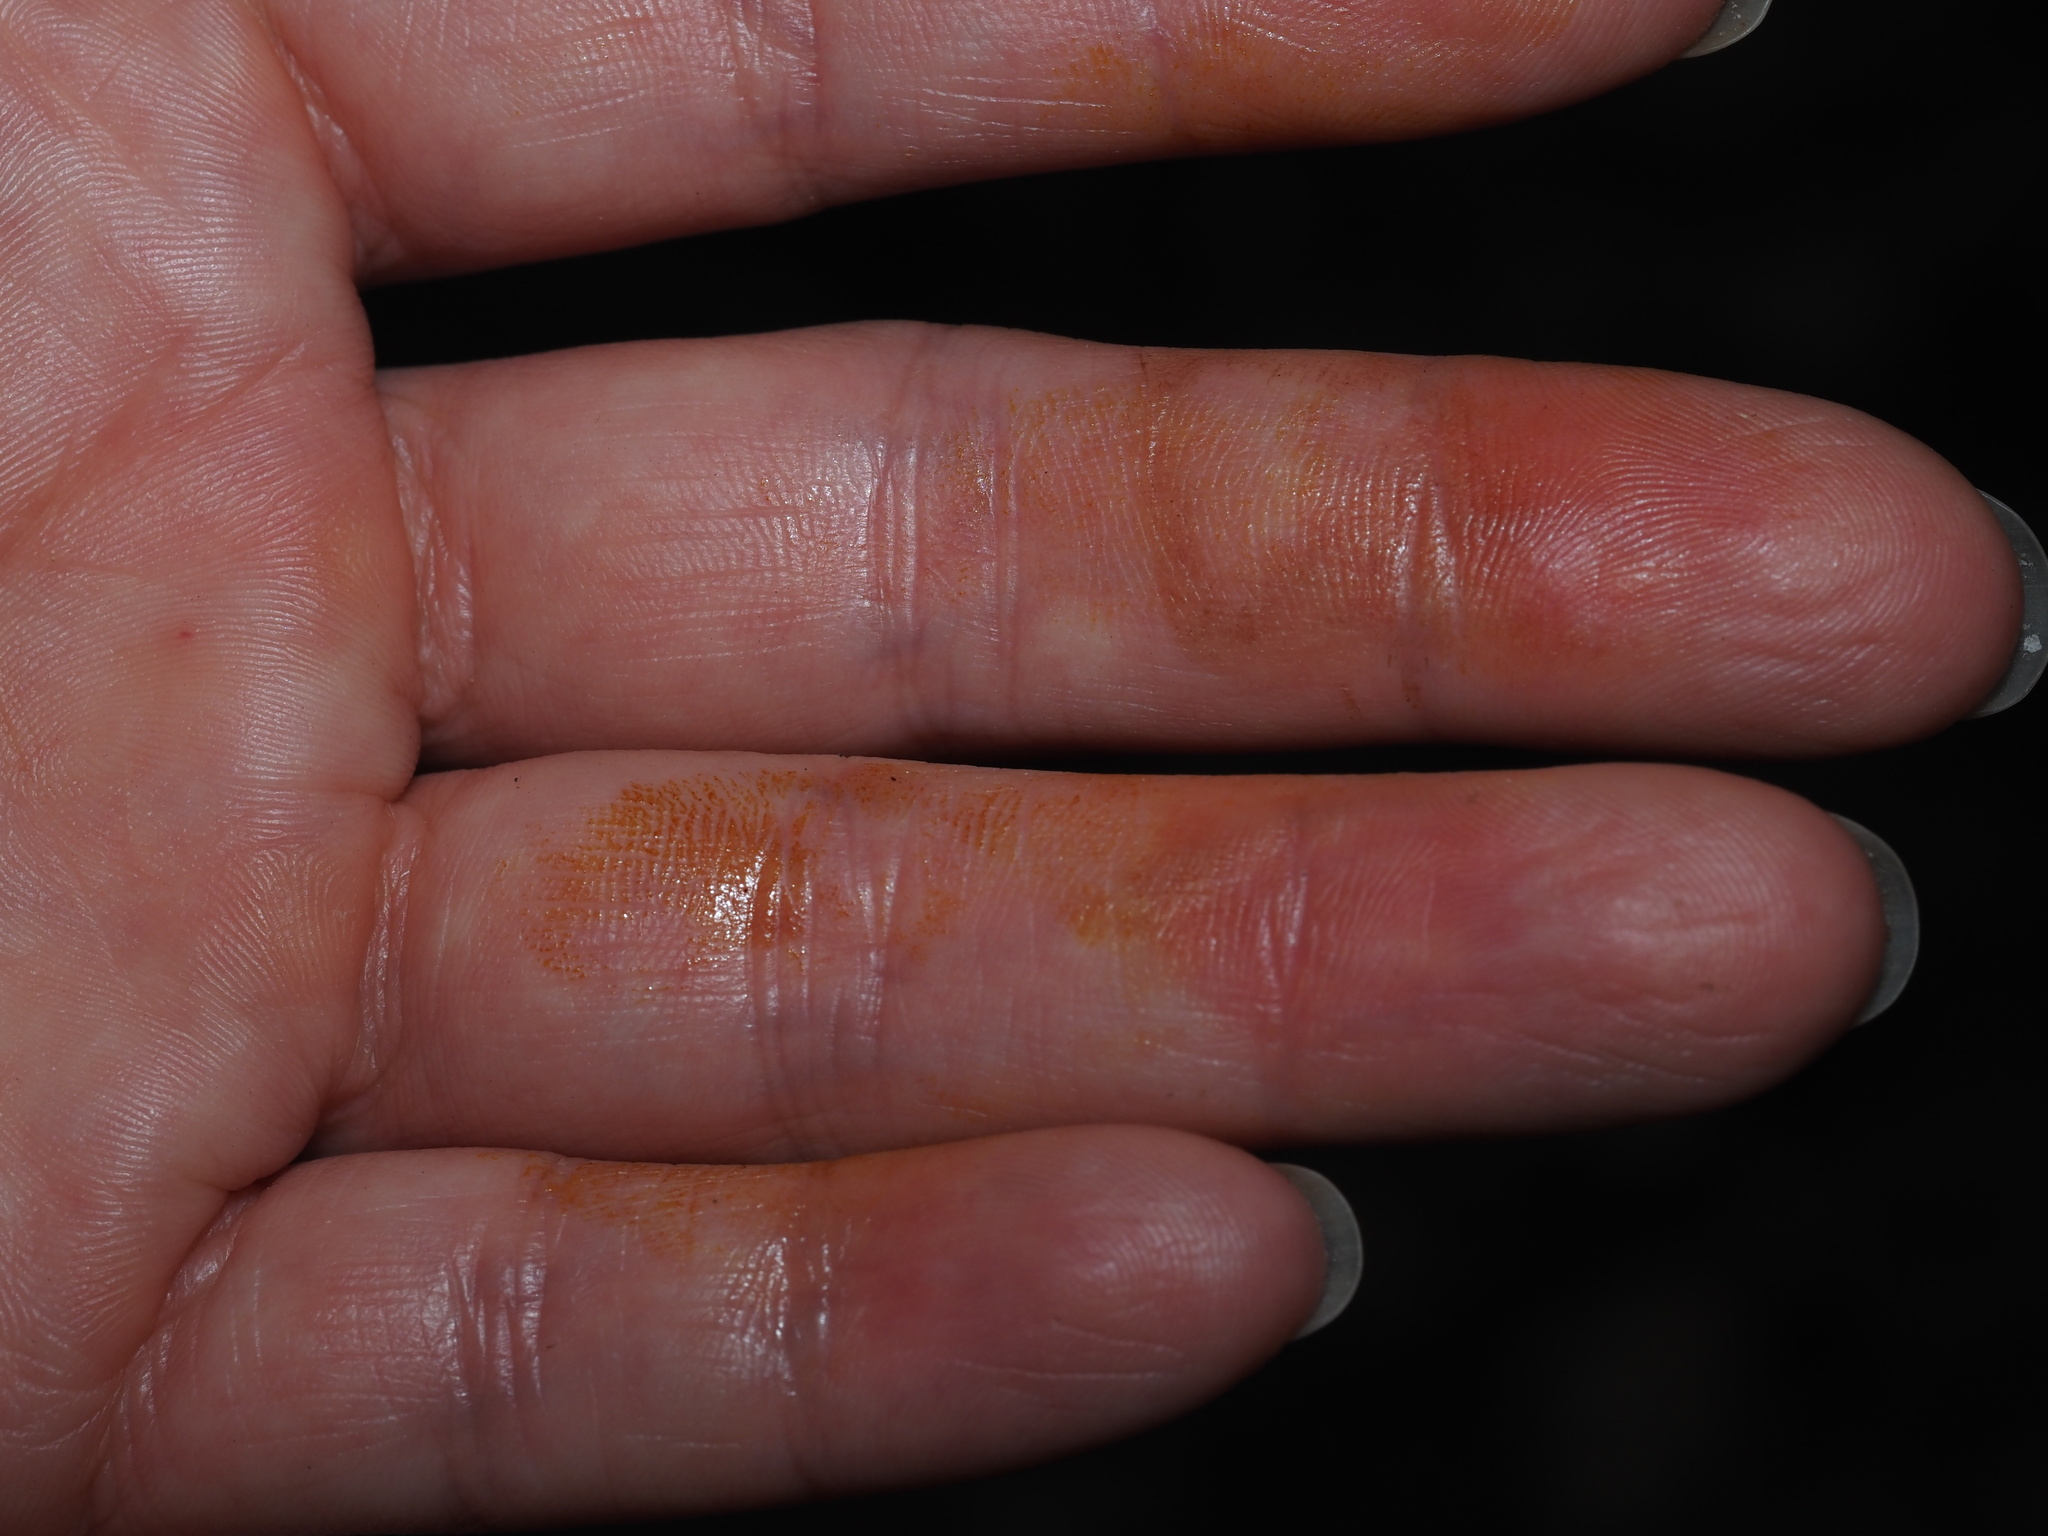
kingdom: Fungi
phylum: Basidiomycota
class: Agaricomycetes
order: Boletales
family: Boletaceae
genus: Pulveroboletus
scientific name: Pulveroboletus curtisii
